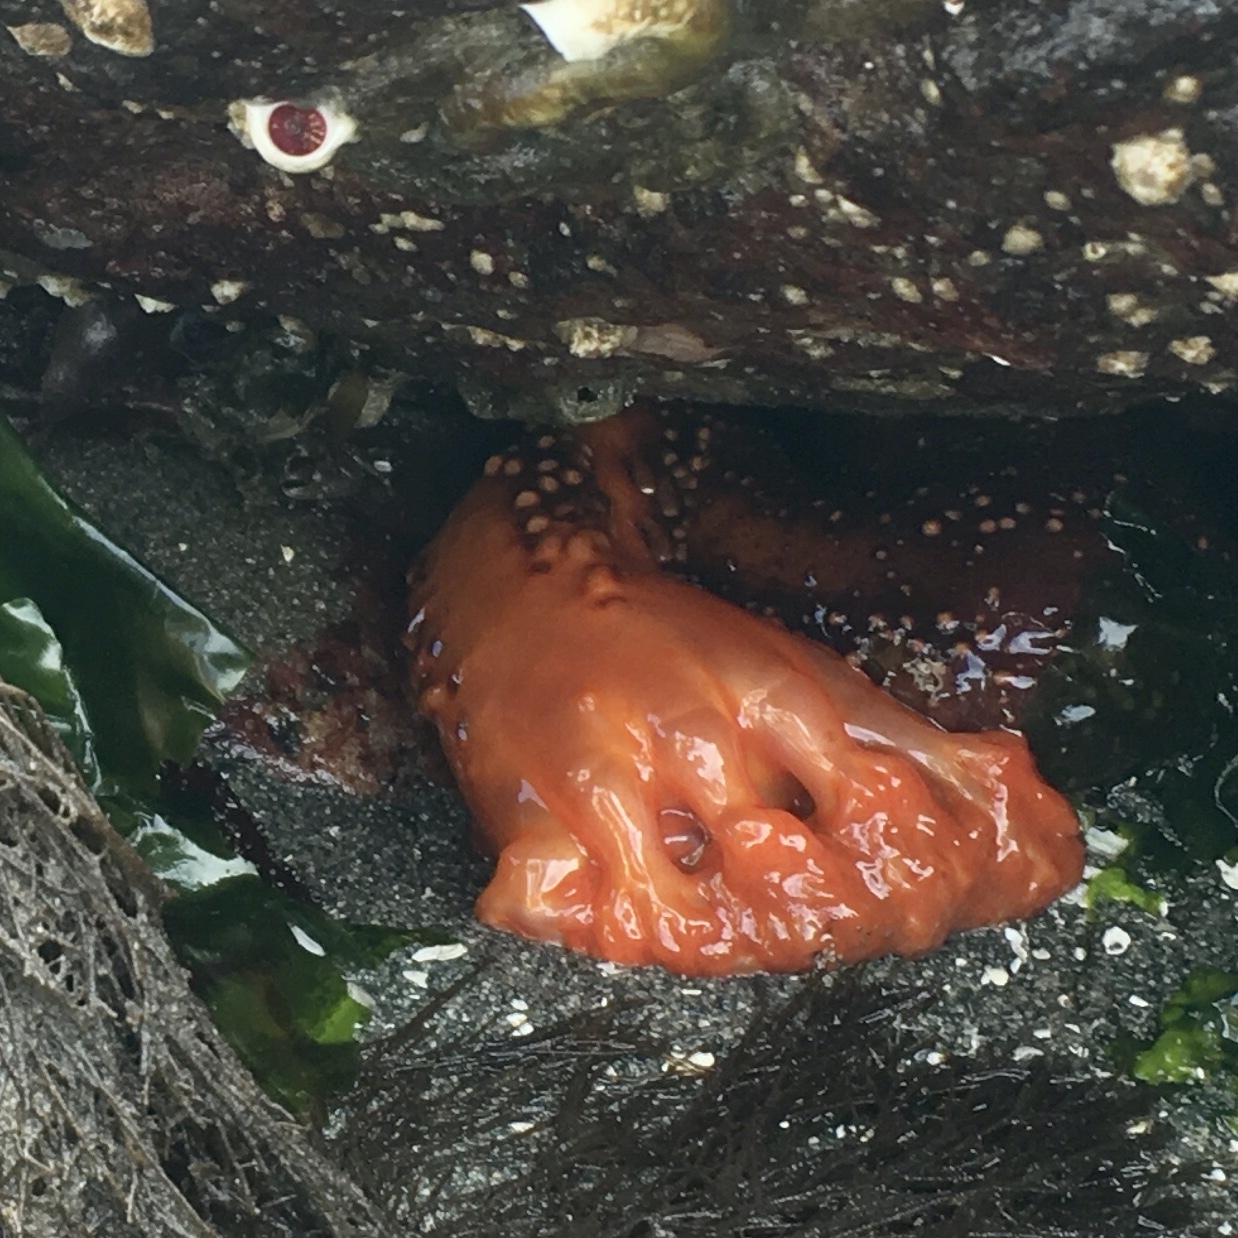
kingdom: Animalia
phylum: Echinodermata
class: Holothuroidea
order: Dendrochirotida
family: Cucumariidae
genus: Cucumaria
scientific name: Cucumaria miniata
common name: Orange sea cucumber
